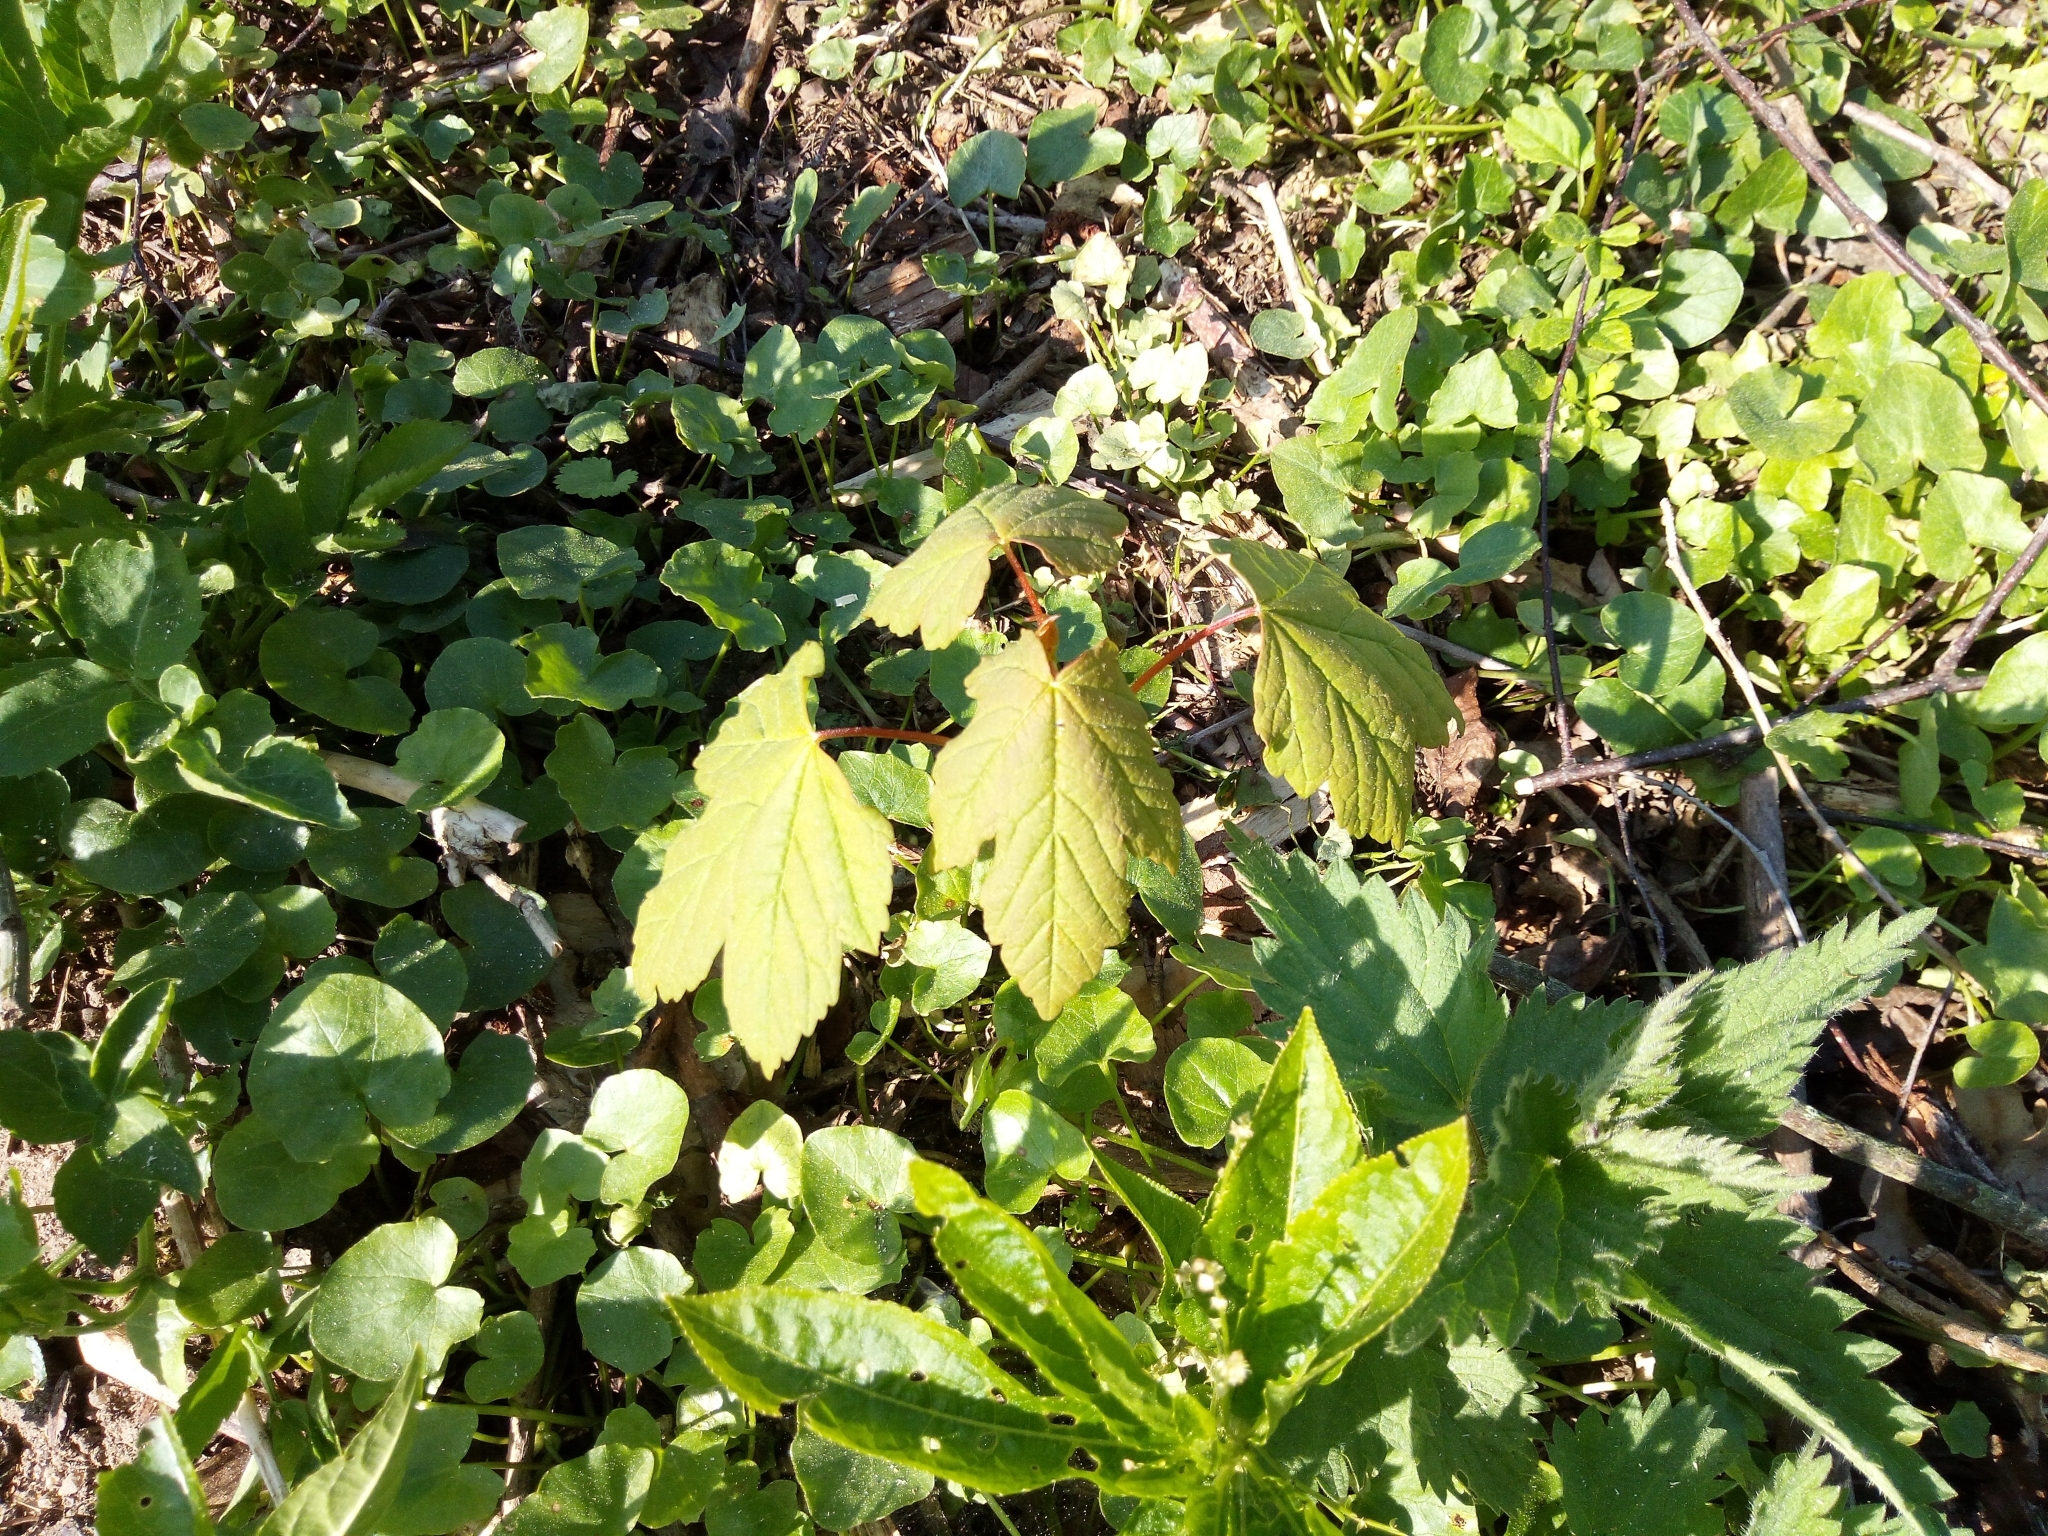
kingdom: Plantae
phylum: Tracheophyta
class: Magnoliopsida
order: Sapindales
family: Sapindaceae
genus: Acer
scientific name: Acer pseudoplatanus
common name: Sycamore
